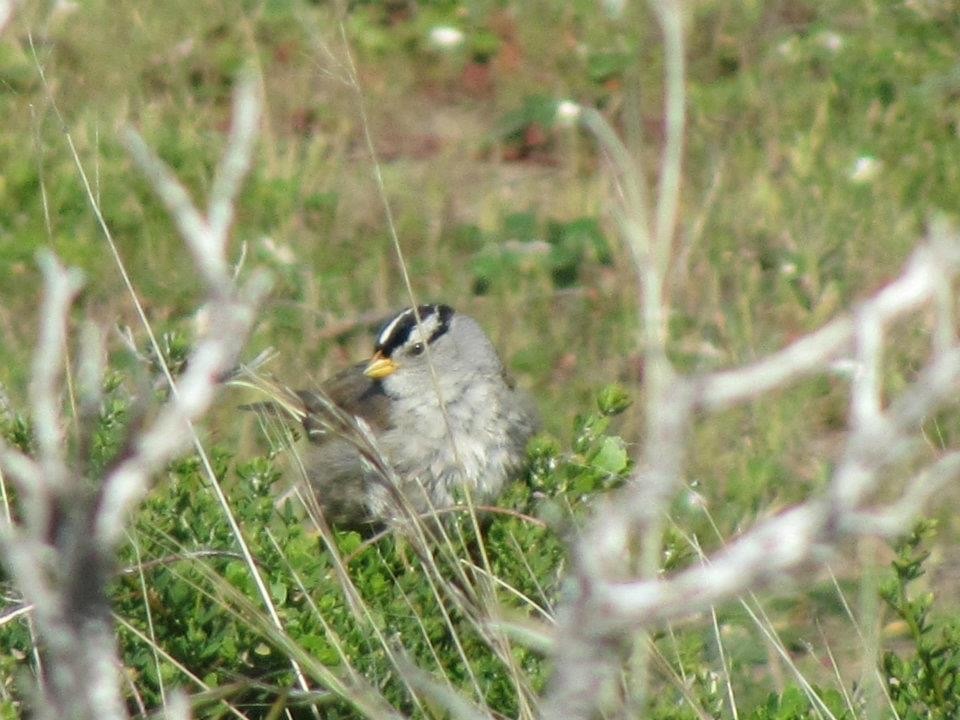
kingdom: Animalia
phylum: Chordata
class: Aves
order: Passeriformes
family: Passerellidae
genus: Zonotrichia
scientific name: Zonotrichia leucophrys
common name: White-crowned sparrow
